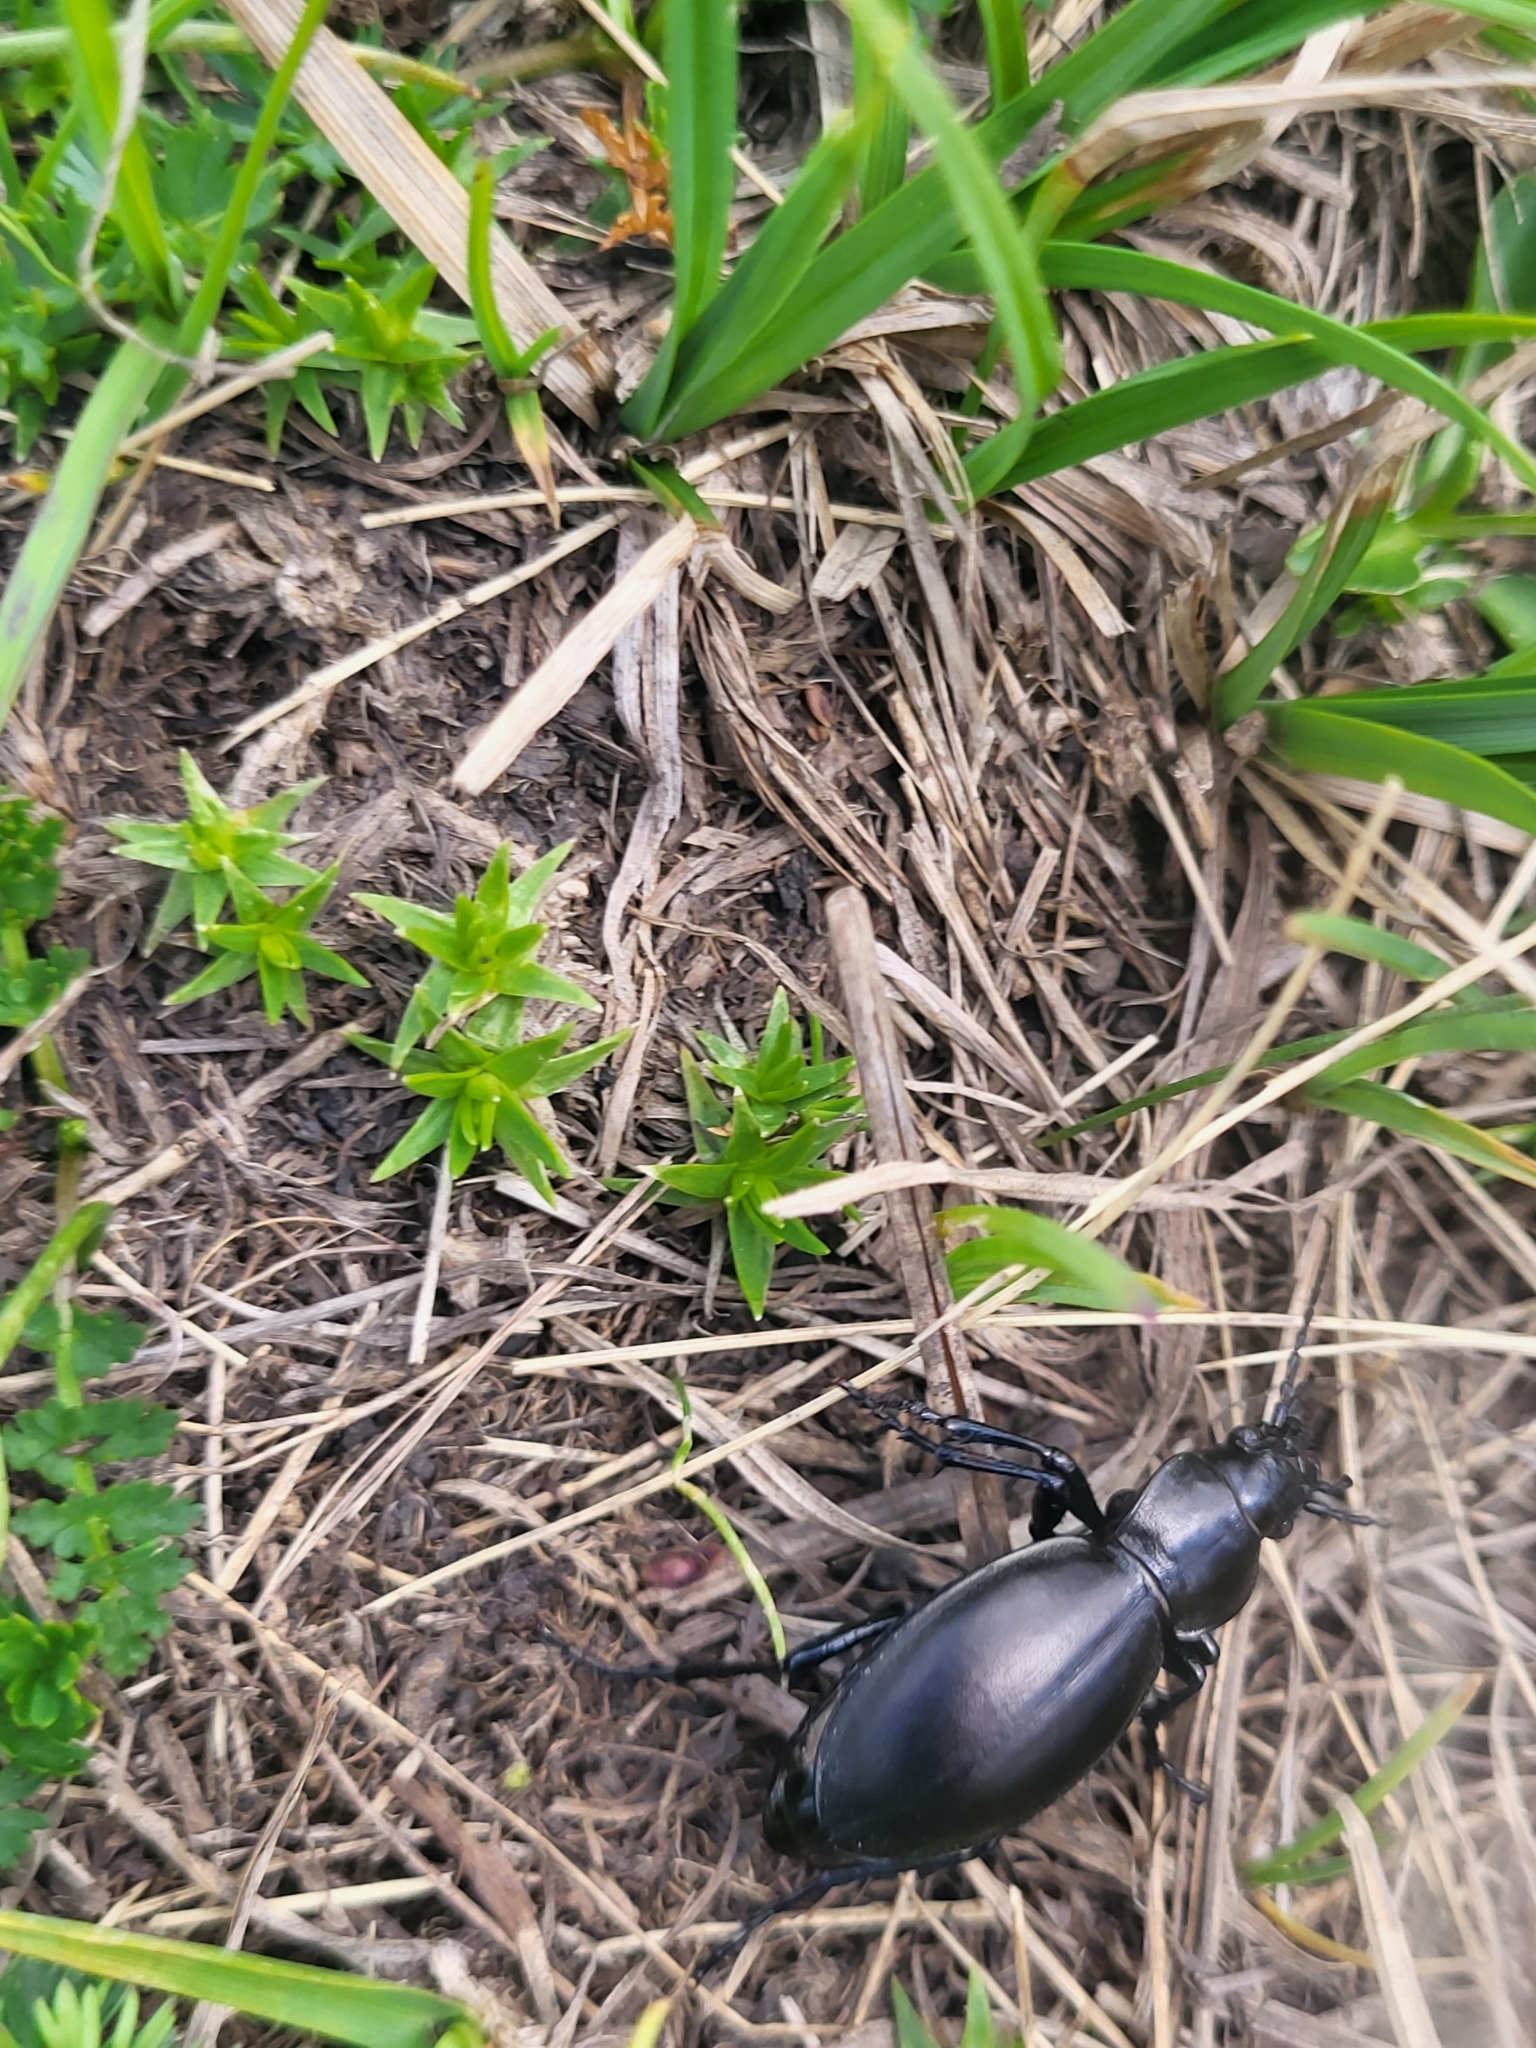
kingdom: Animalia
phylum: Arthropoda
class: Insecta
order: Coleoptera
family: Carabidae
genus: Carabus
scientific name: Carabus calleyi
